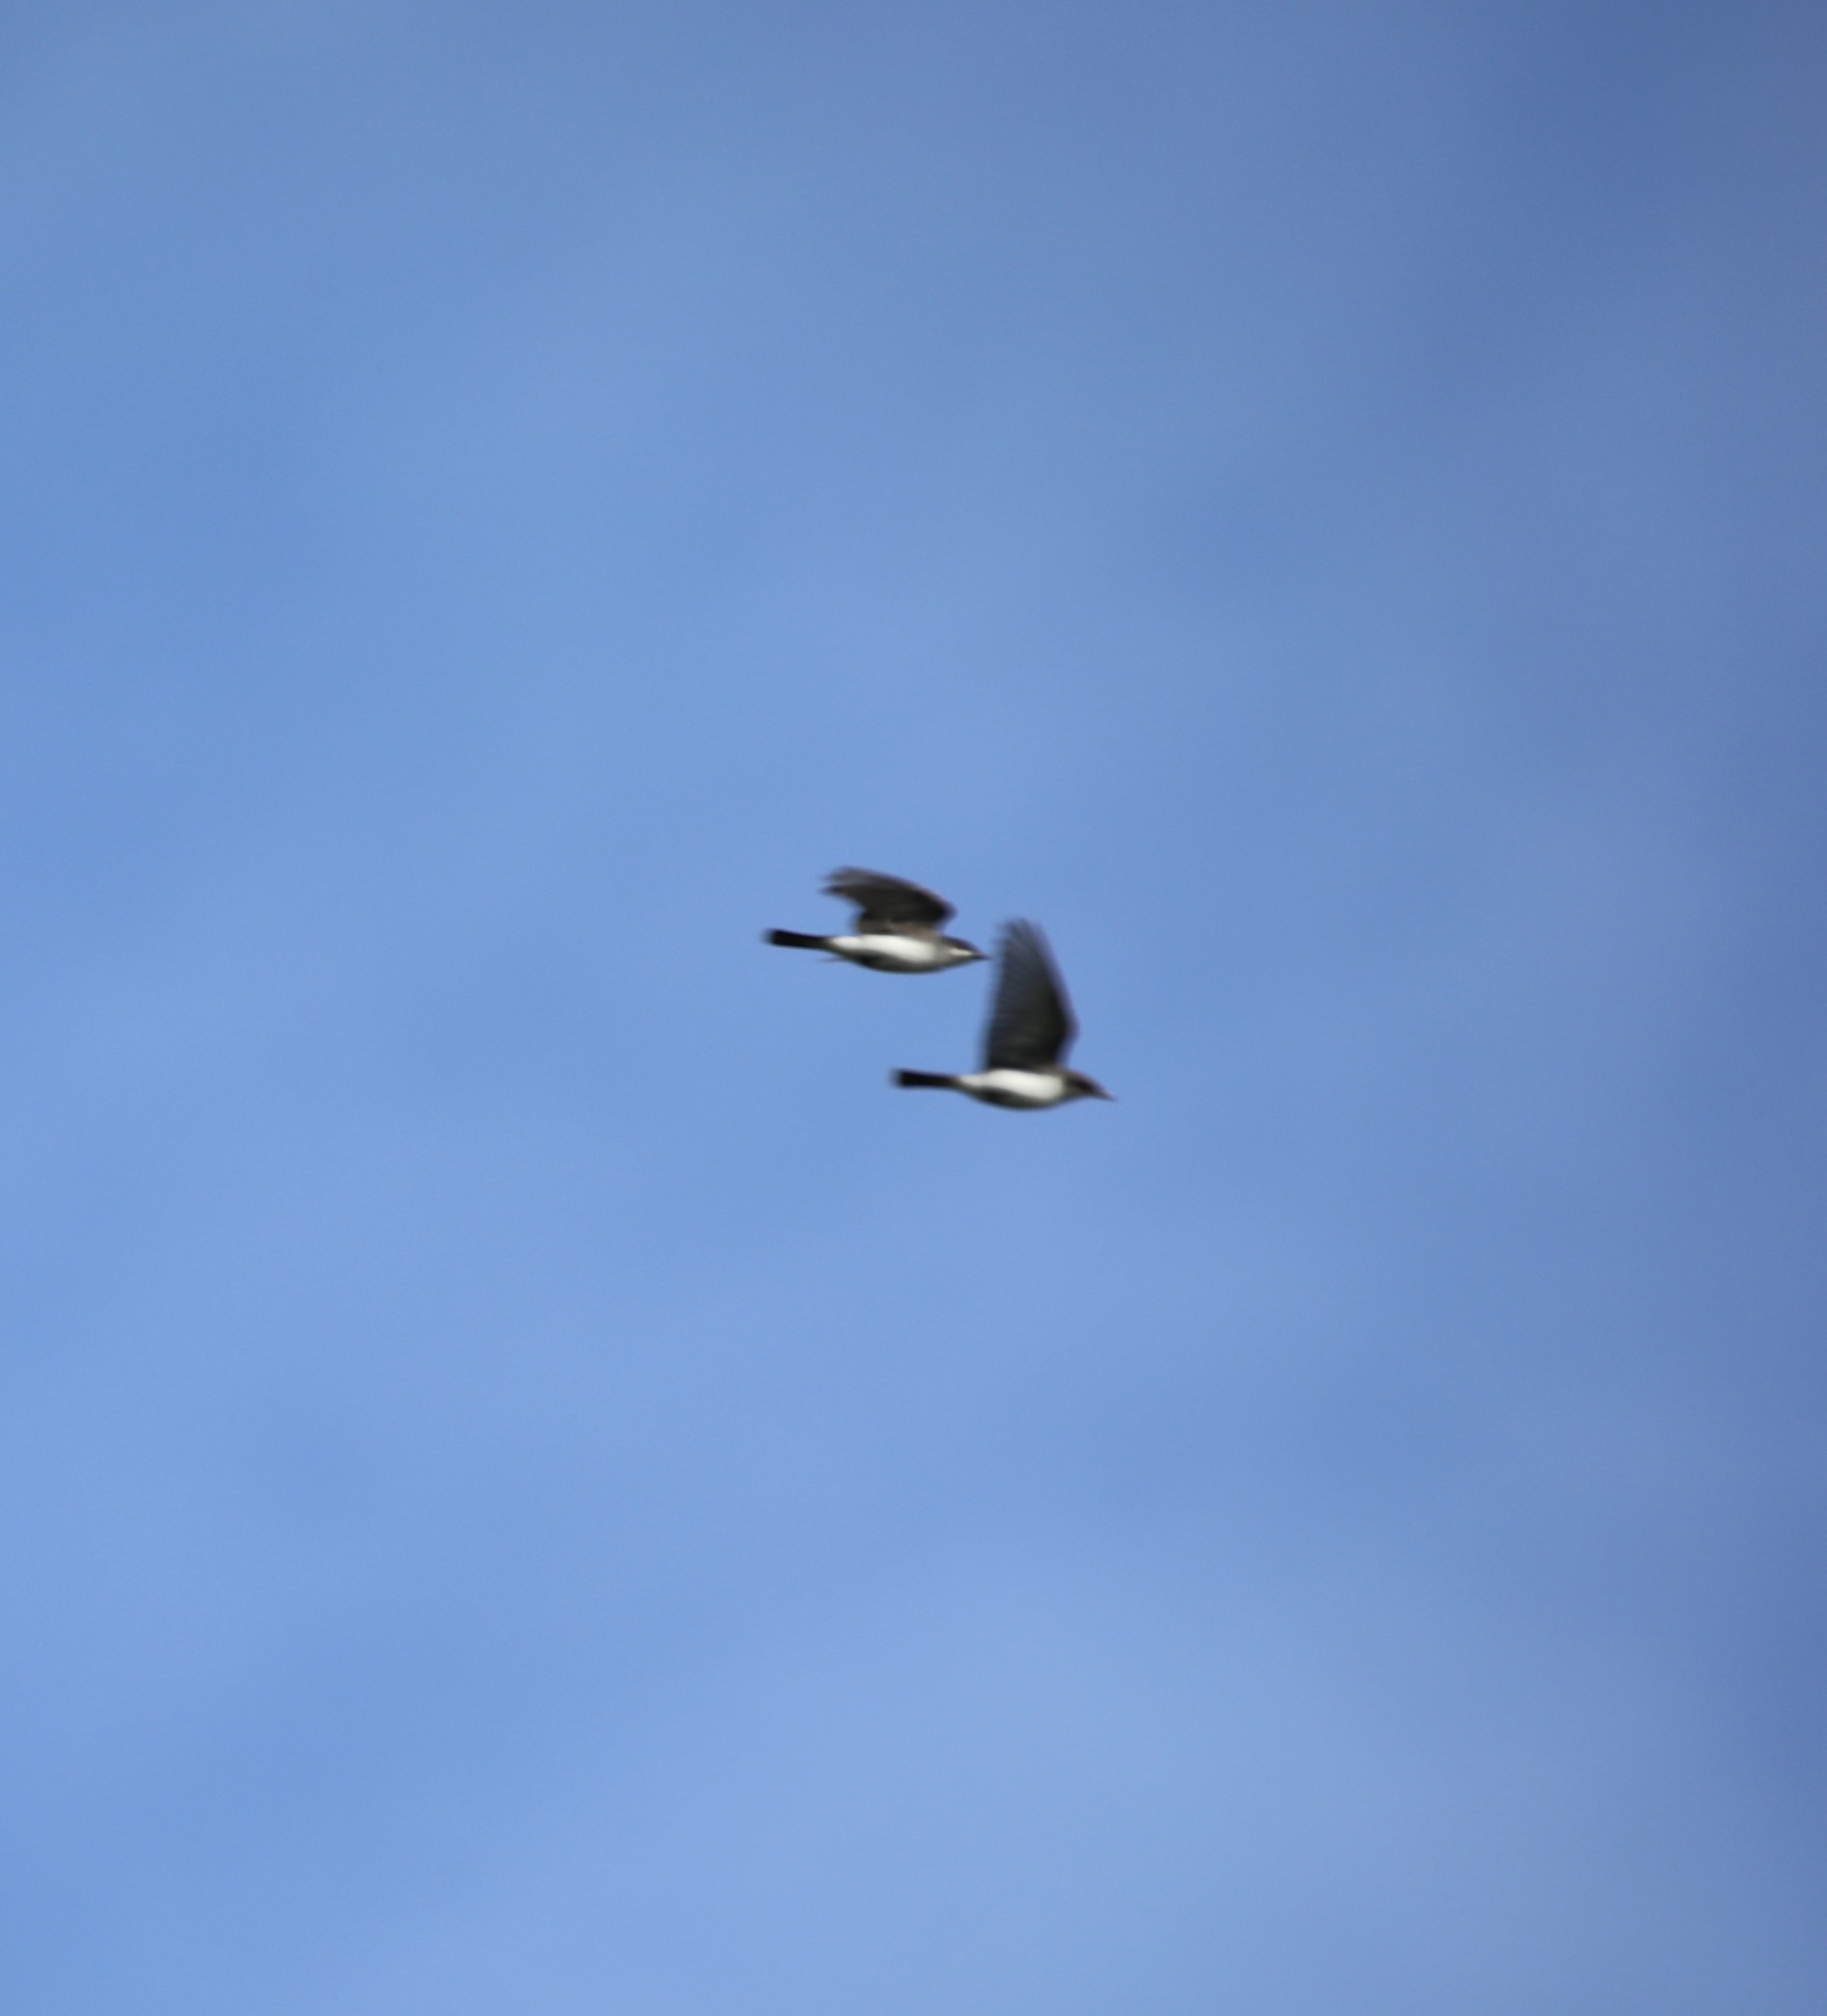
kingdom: Animalia
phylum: Chordata
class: Aves
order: Passeriformes
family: Tyrannidae
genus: Tyrannus
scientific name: Tyrannus tyrannus
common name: Eastern kingbird
